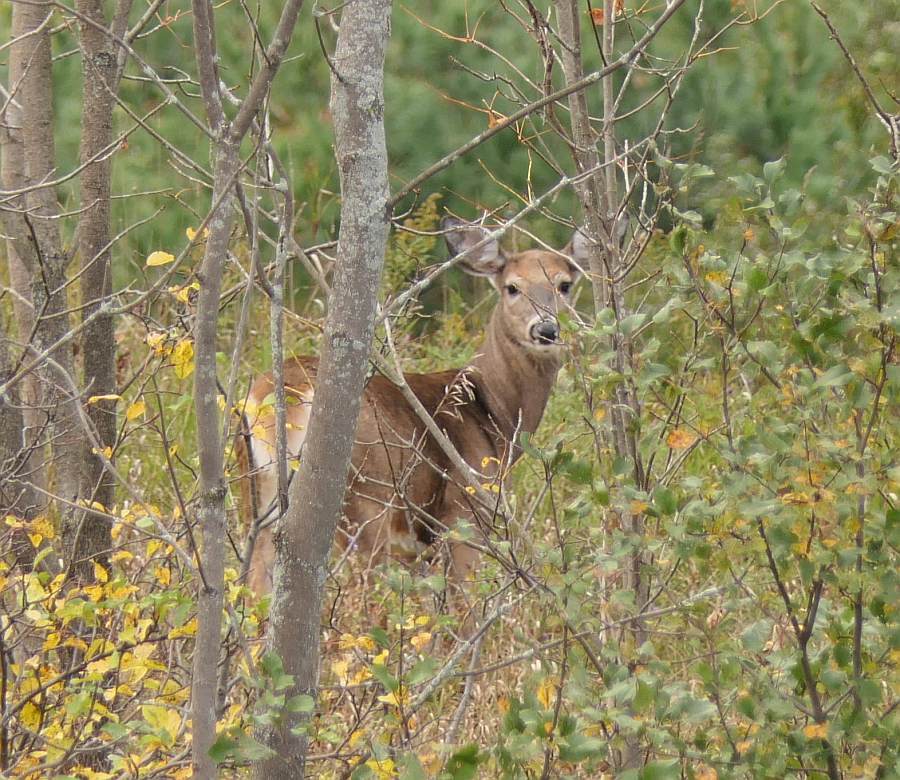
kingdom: Animalia
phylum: Chordata
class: Mammalia
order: Artiodactyla
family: Cervidae
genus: Odocoileus
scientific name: Odocoileus virginianus
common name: White-tailed deer
